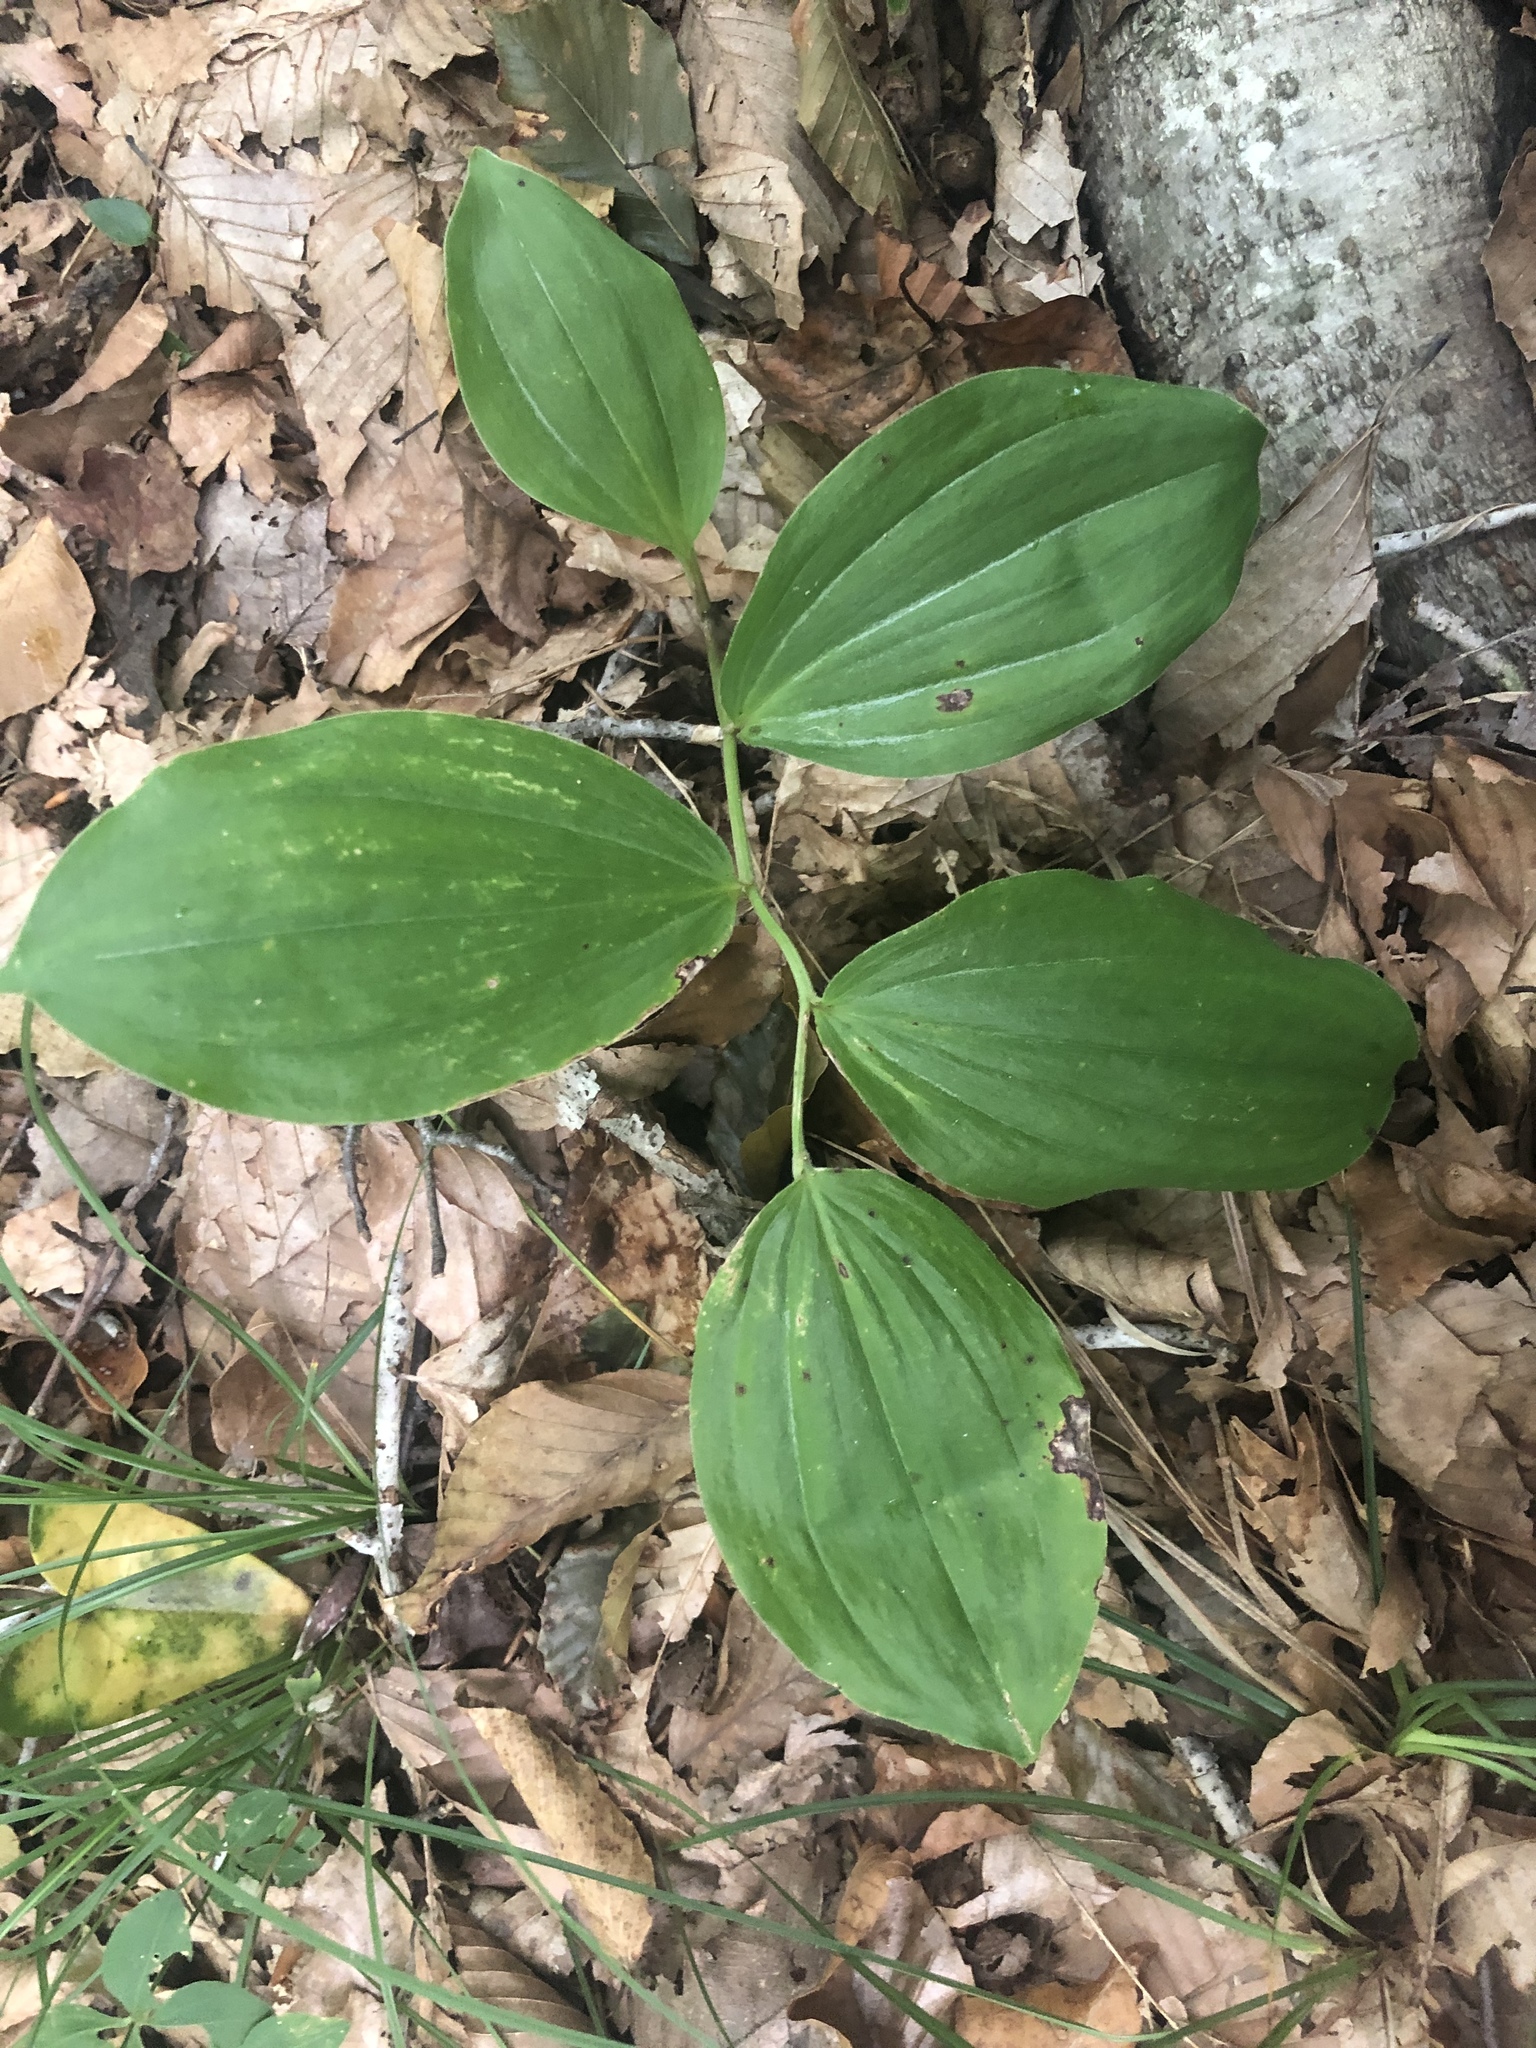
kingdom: Plantae
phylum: Tracheophyta
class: Liliopsida
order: Asparagales
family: Asparagaceae
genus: Maianthemum
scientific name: Maianthemum racemosum
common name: False spikenard
